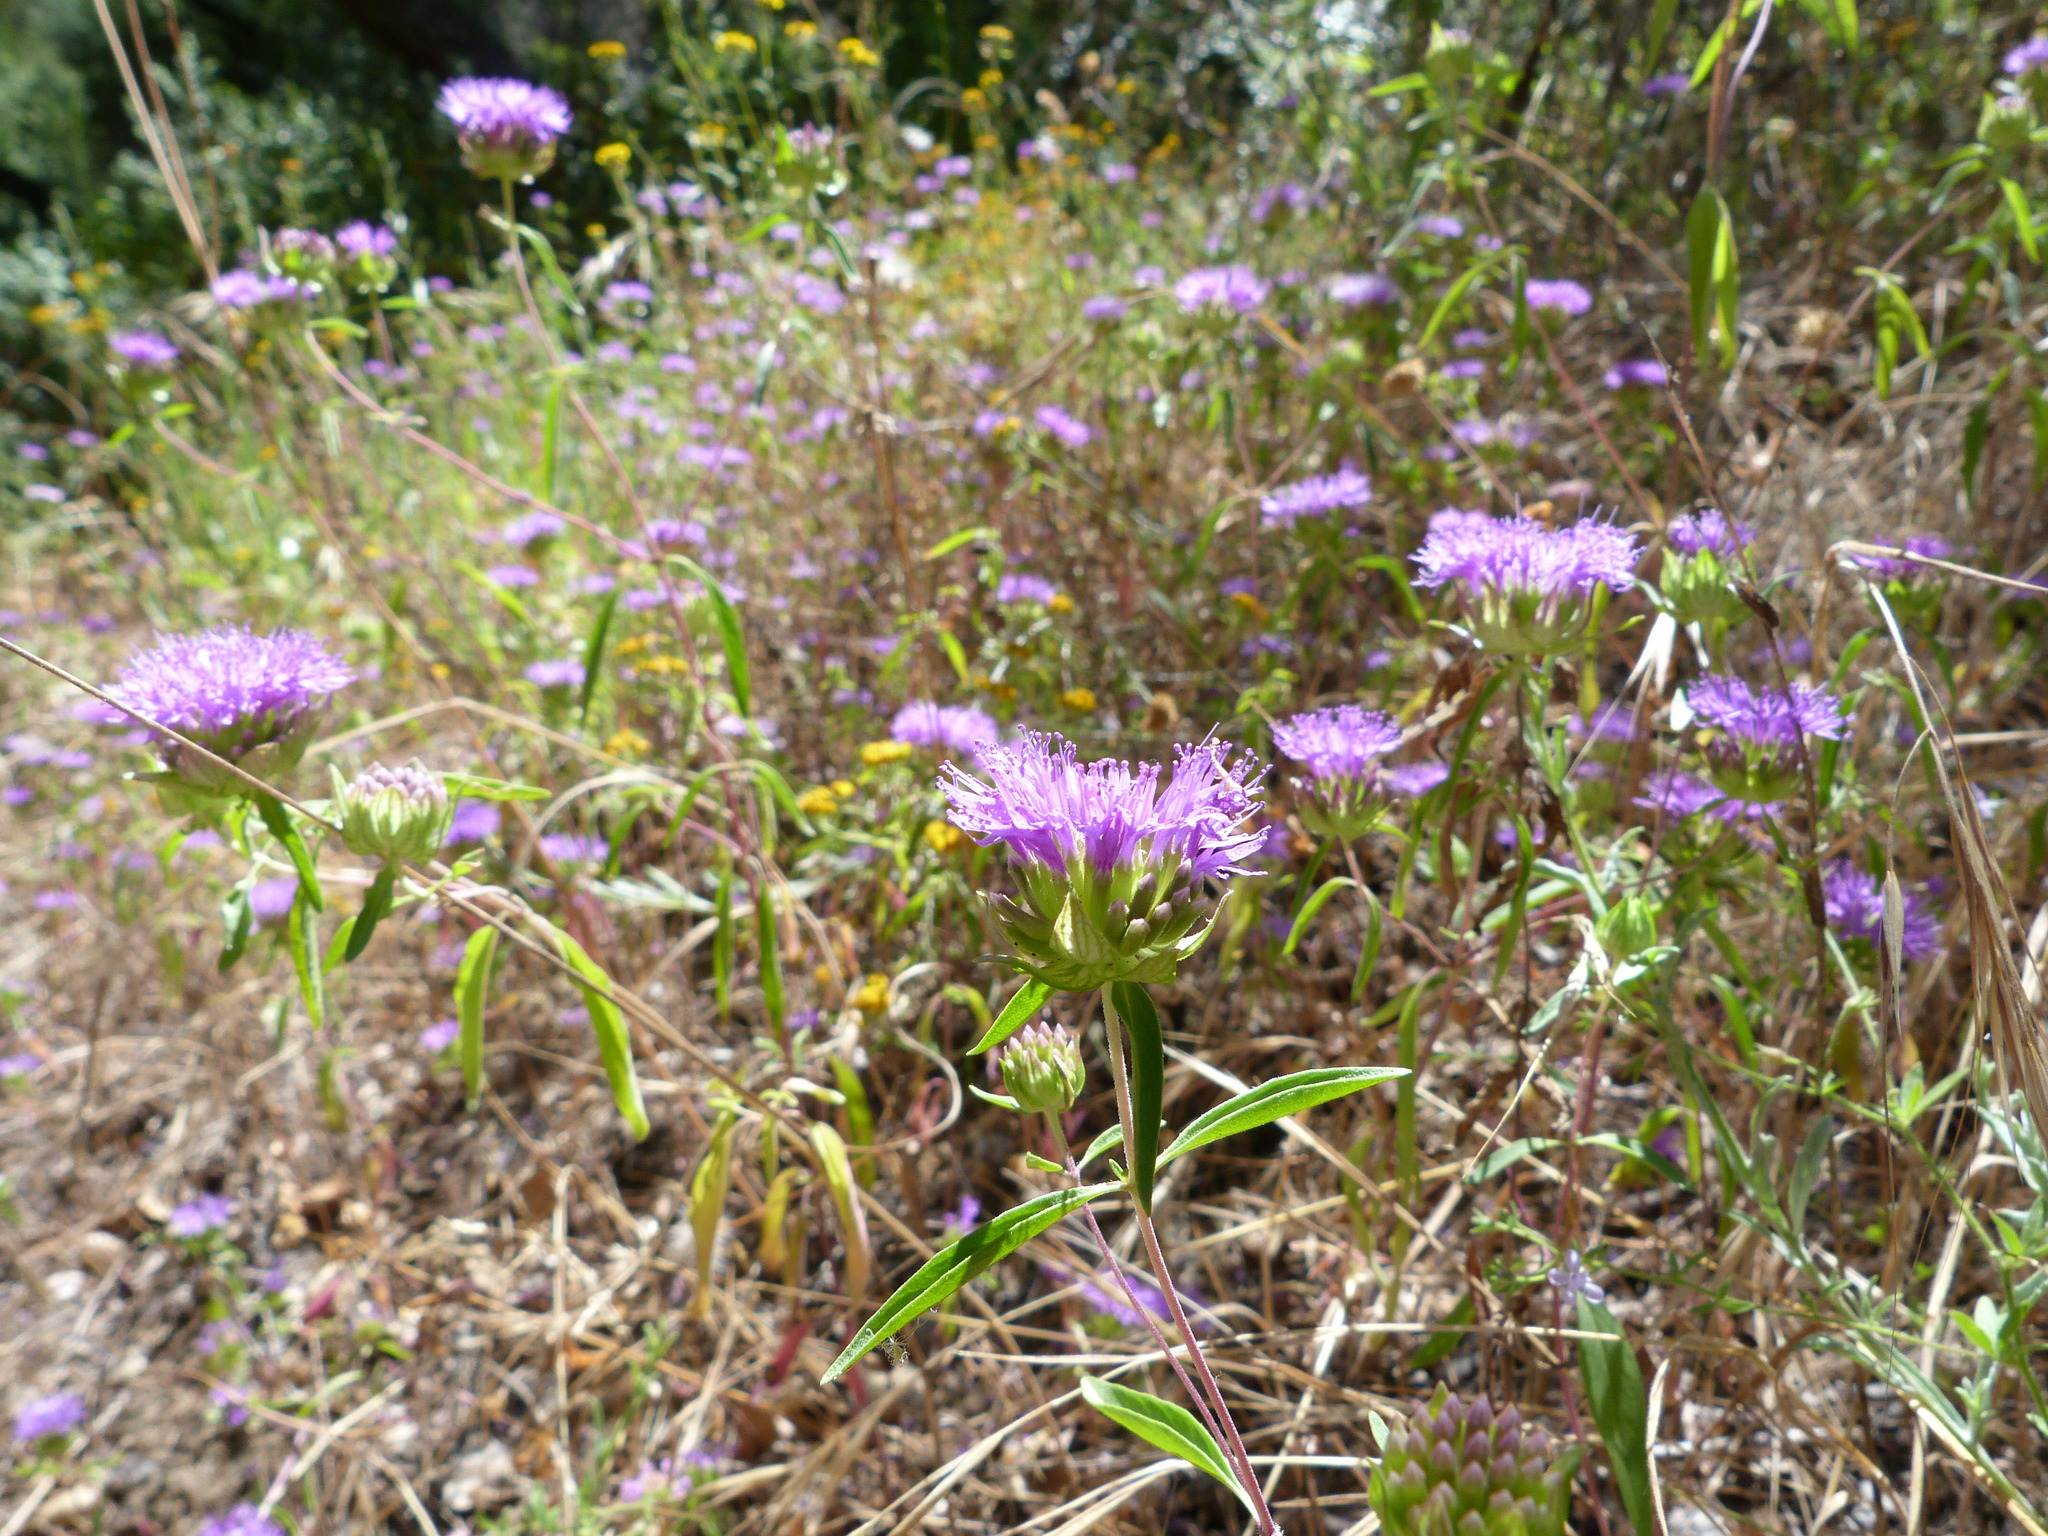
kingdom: Plantae
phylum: Tracheophyta
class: Magnoliopsida
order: Lamiales
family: Lamiaceae
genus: Monardella
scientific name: Monardella breweri
